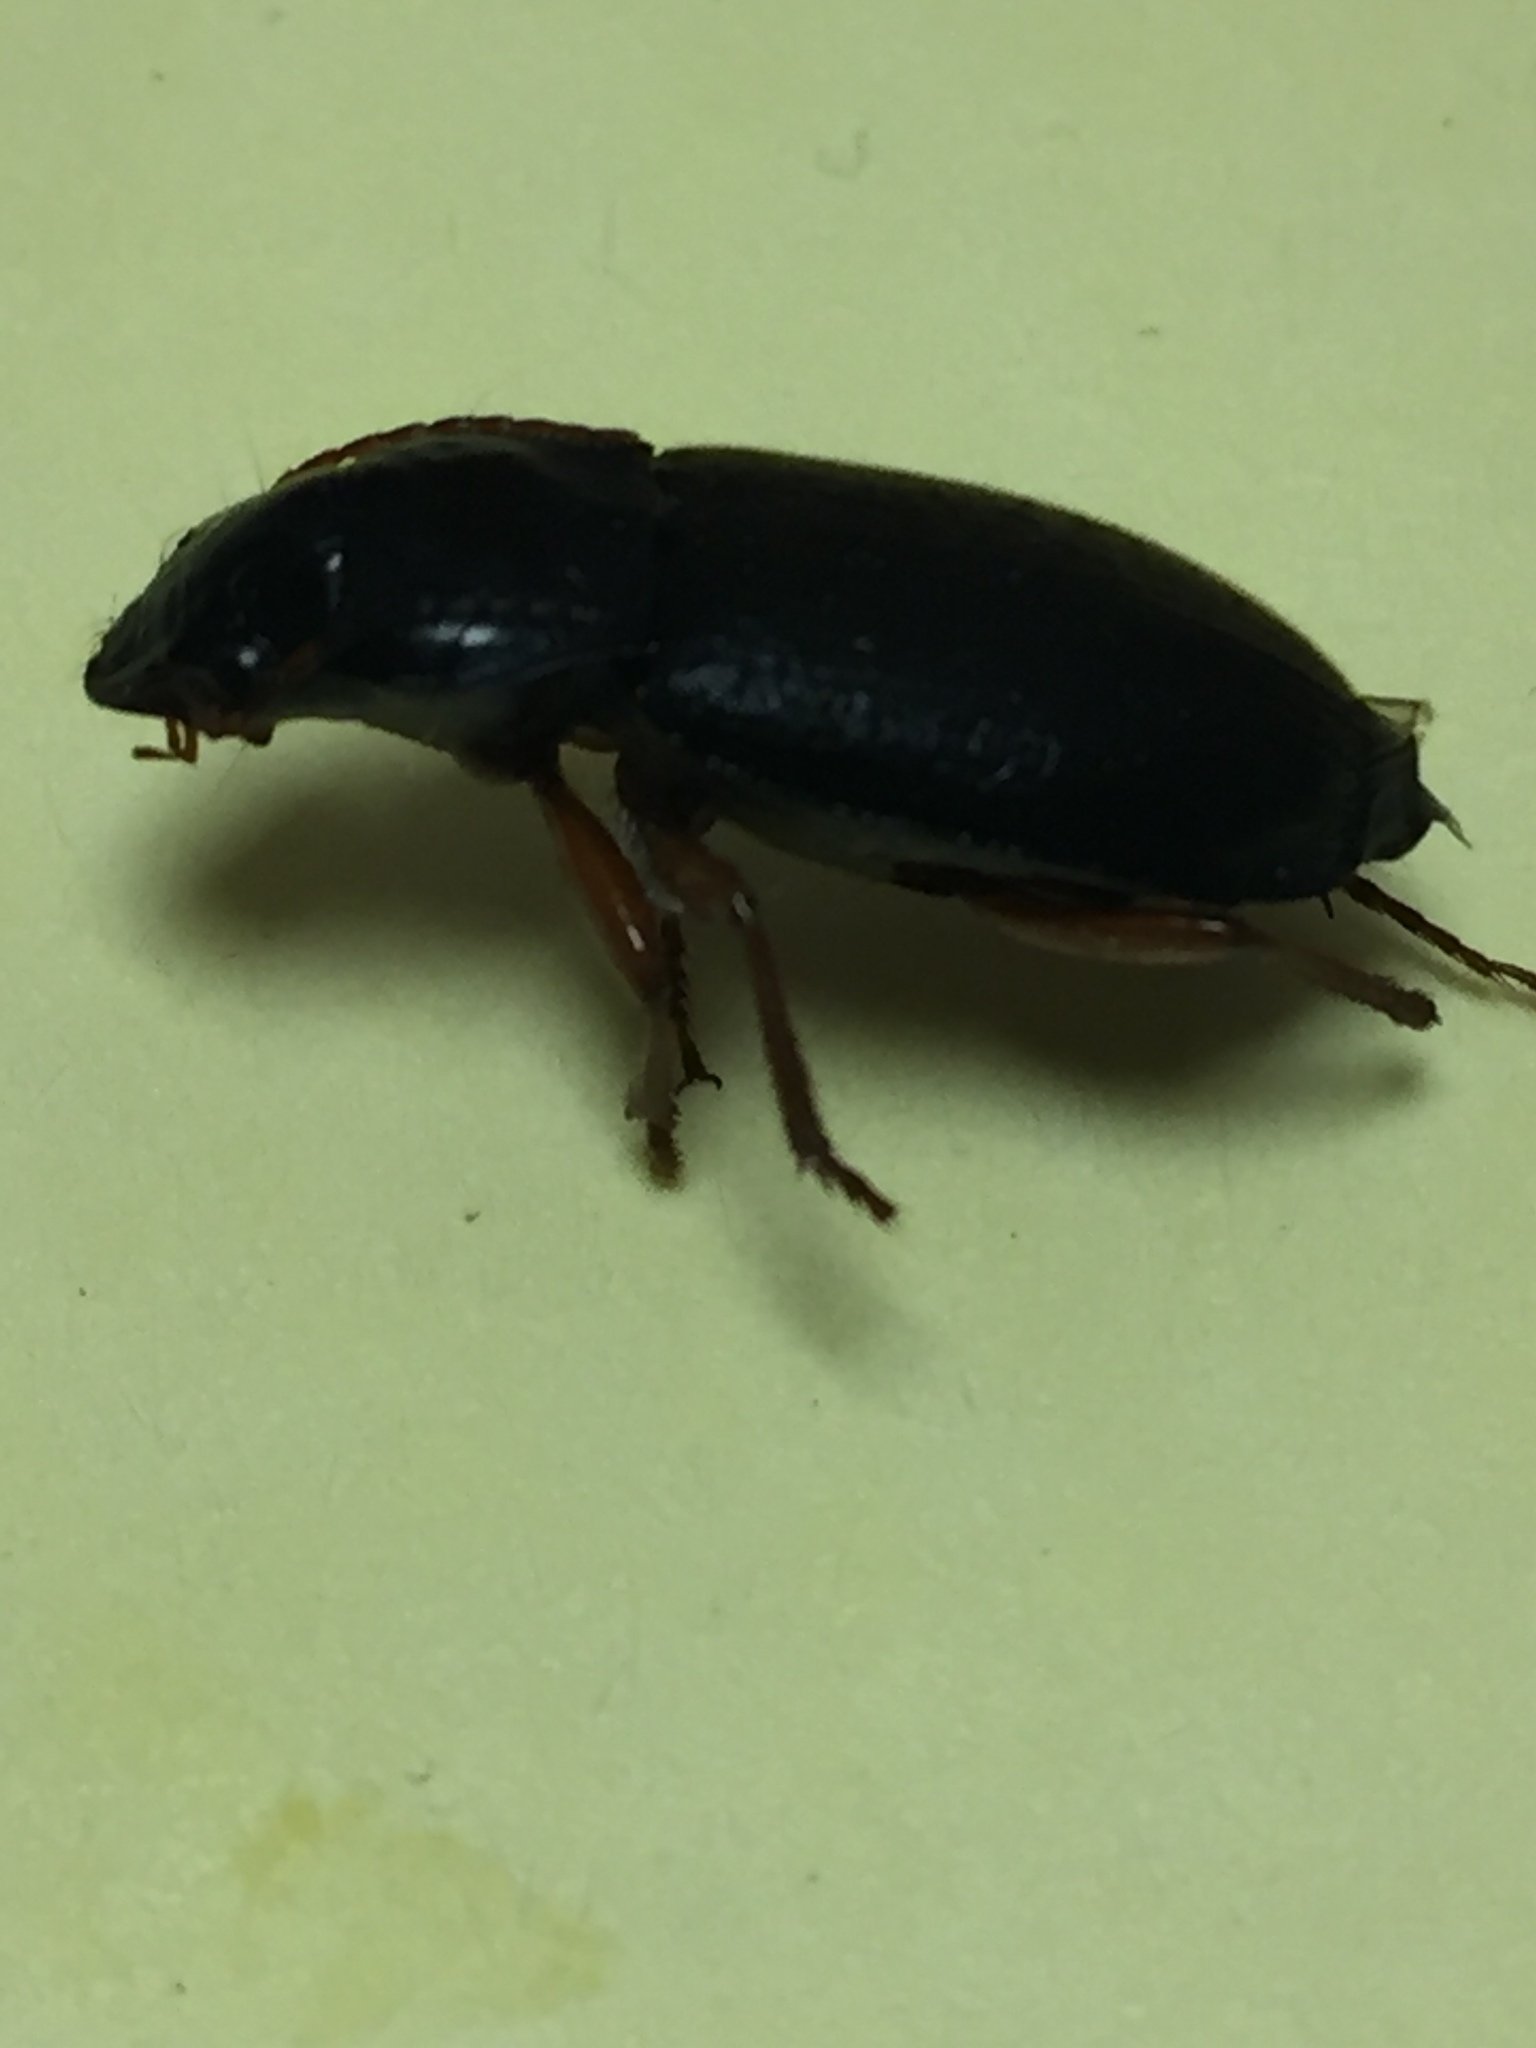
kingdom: Animalia
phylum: Arthropoda
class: Insecta
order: Coleoptera
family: Carabidae
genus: Harpalus
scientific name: Harpalus rufipes
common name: Strawberry harp ground beetle
